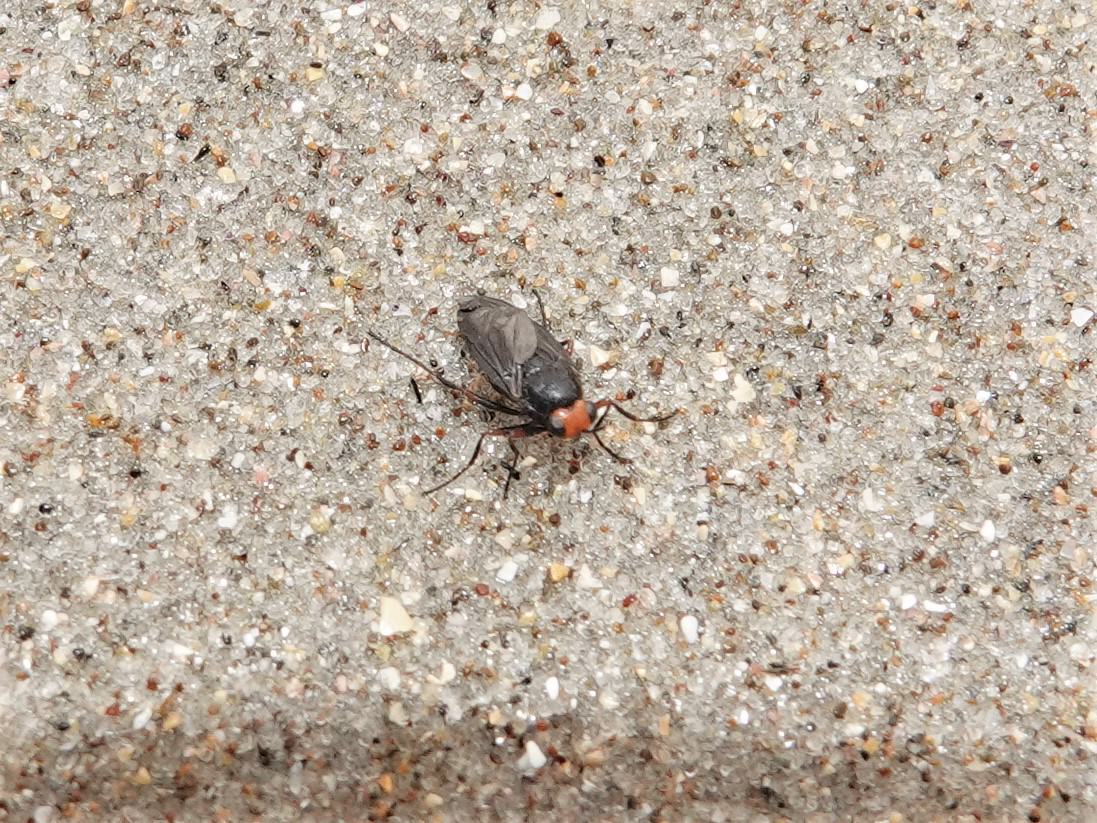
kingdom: Animalia
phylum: Arthropoda
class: Insecta
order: Diptera
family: Stratiomyidae
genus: Inopus
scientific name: Inopus rubriceps
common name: Soldier fly
